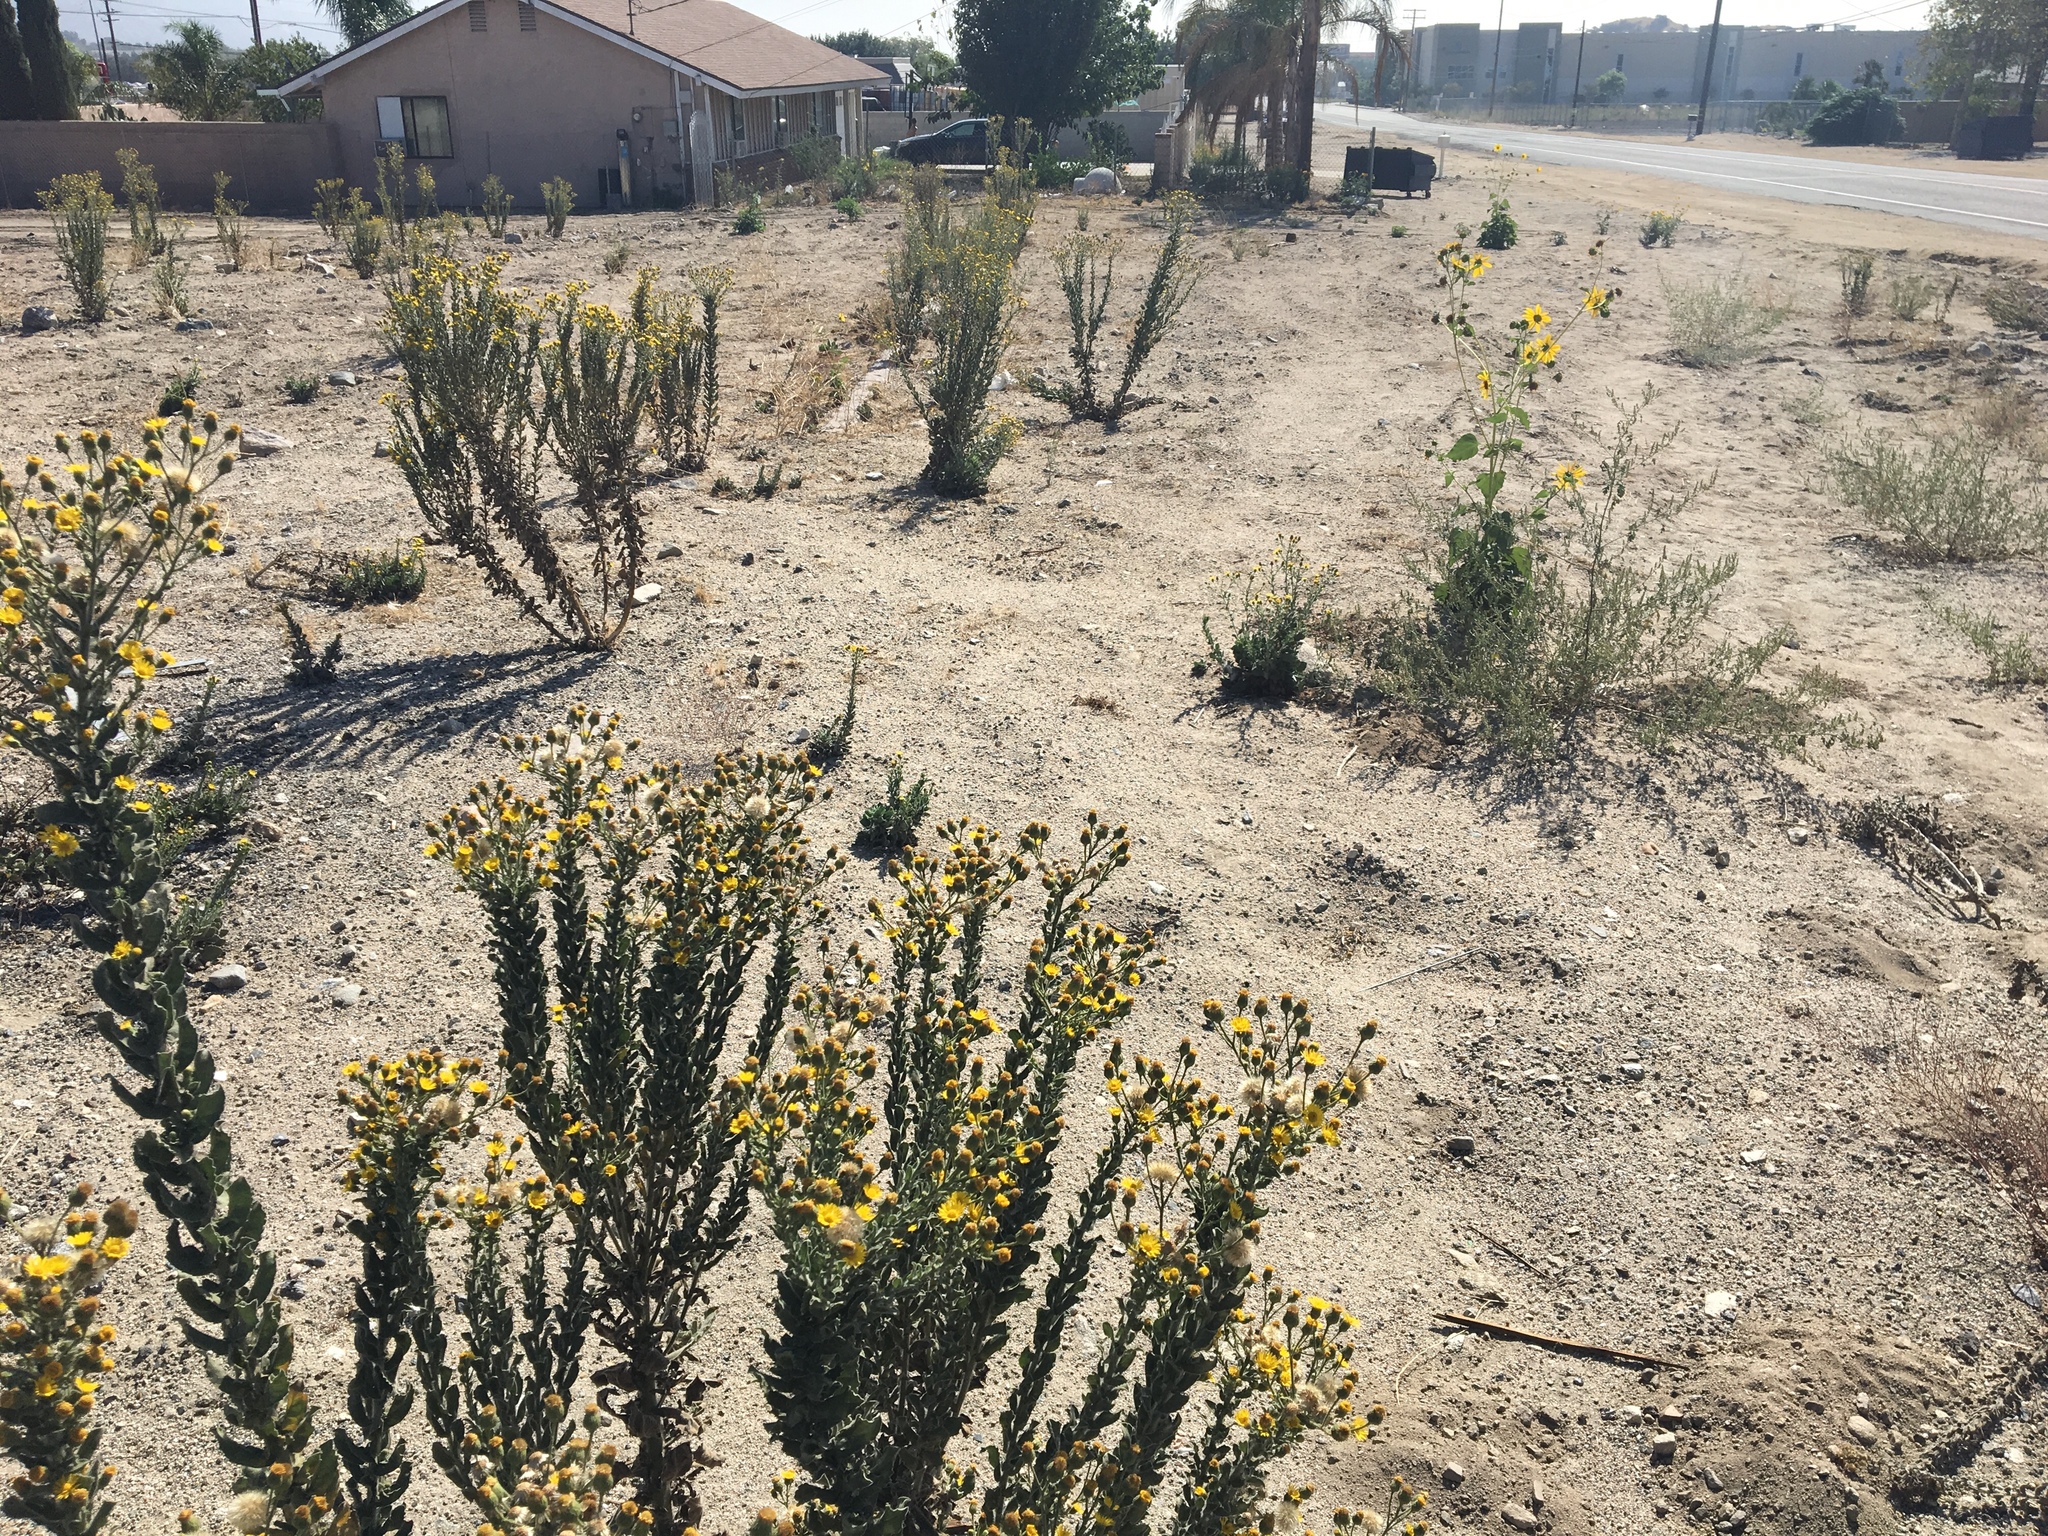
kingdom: Plantae
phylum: Tracheophyta
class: Magnoliopsida
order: Asterales
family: Asteraceae
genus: Heterotheca
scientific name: Heterotheca grandiflora
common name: Telegraphweed
